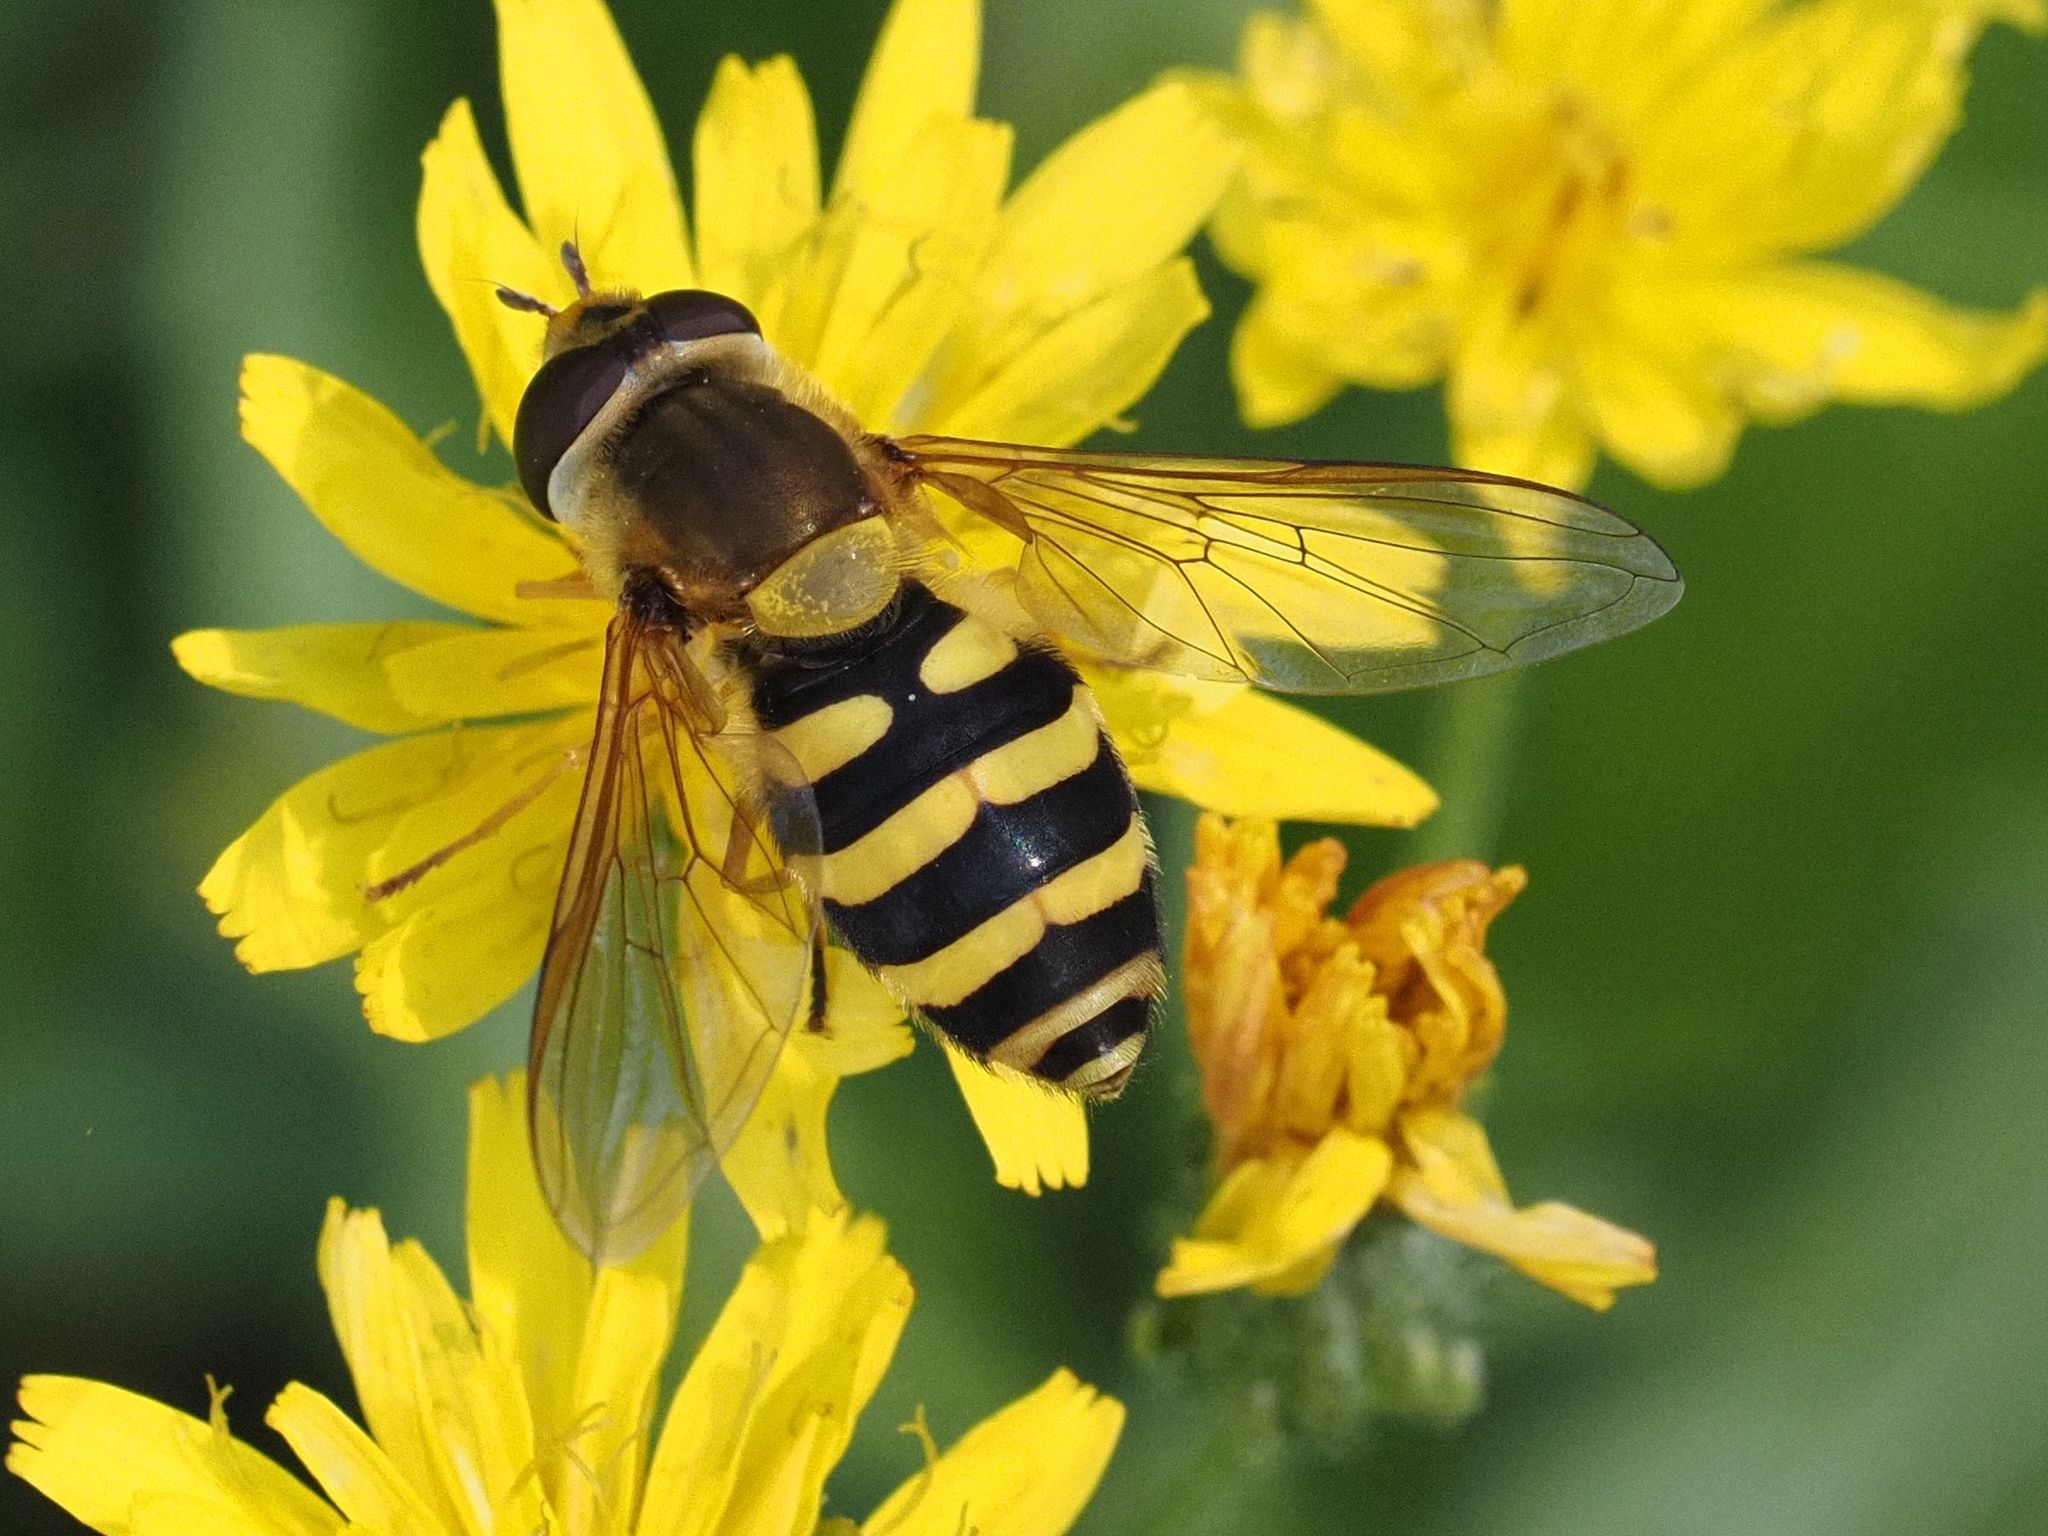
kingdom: Animalia
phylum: Arthropoda
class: Insecta
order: Diptera
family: Syrphidae
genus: Syrphus
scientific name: Syrphus
